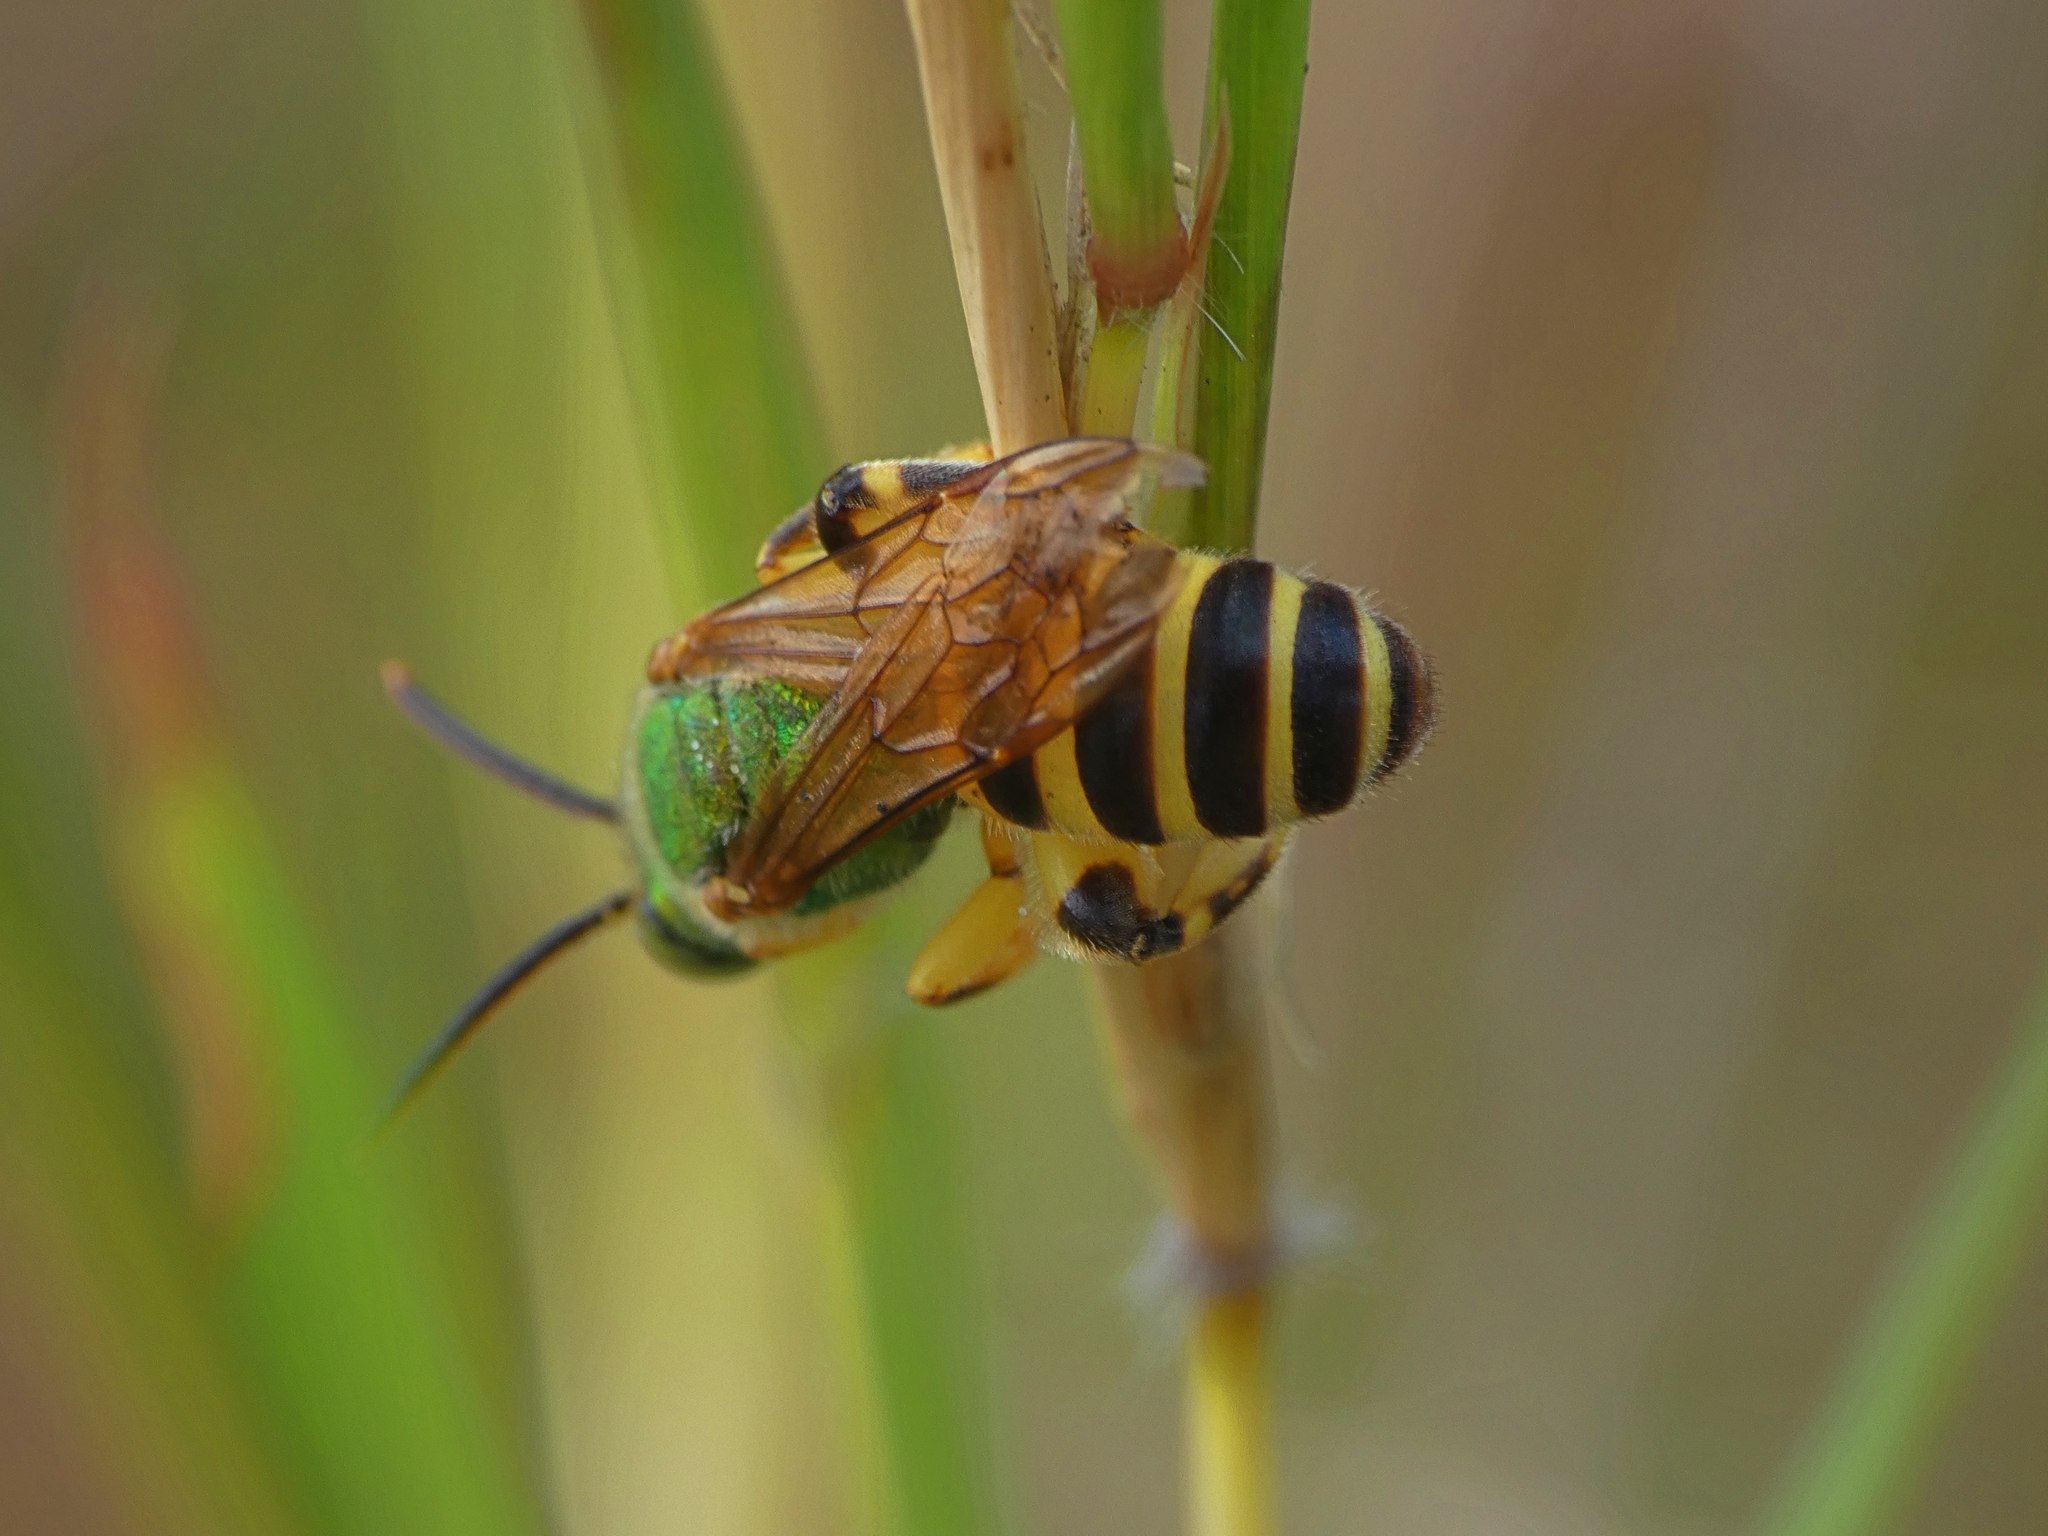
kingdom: Animalia
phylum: Arthropoda
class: Insecta
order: Hymenoptera
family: Halictidae
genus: Agapostemon
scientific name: Agapostemon splendens
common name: Brown-winged striped sweat bee
